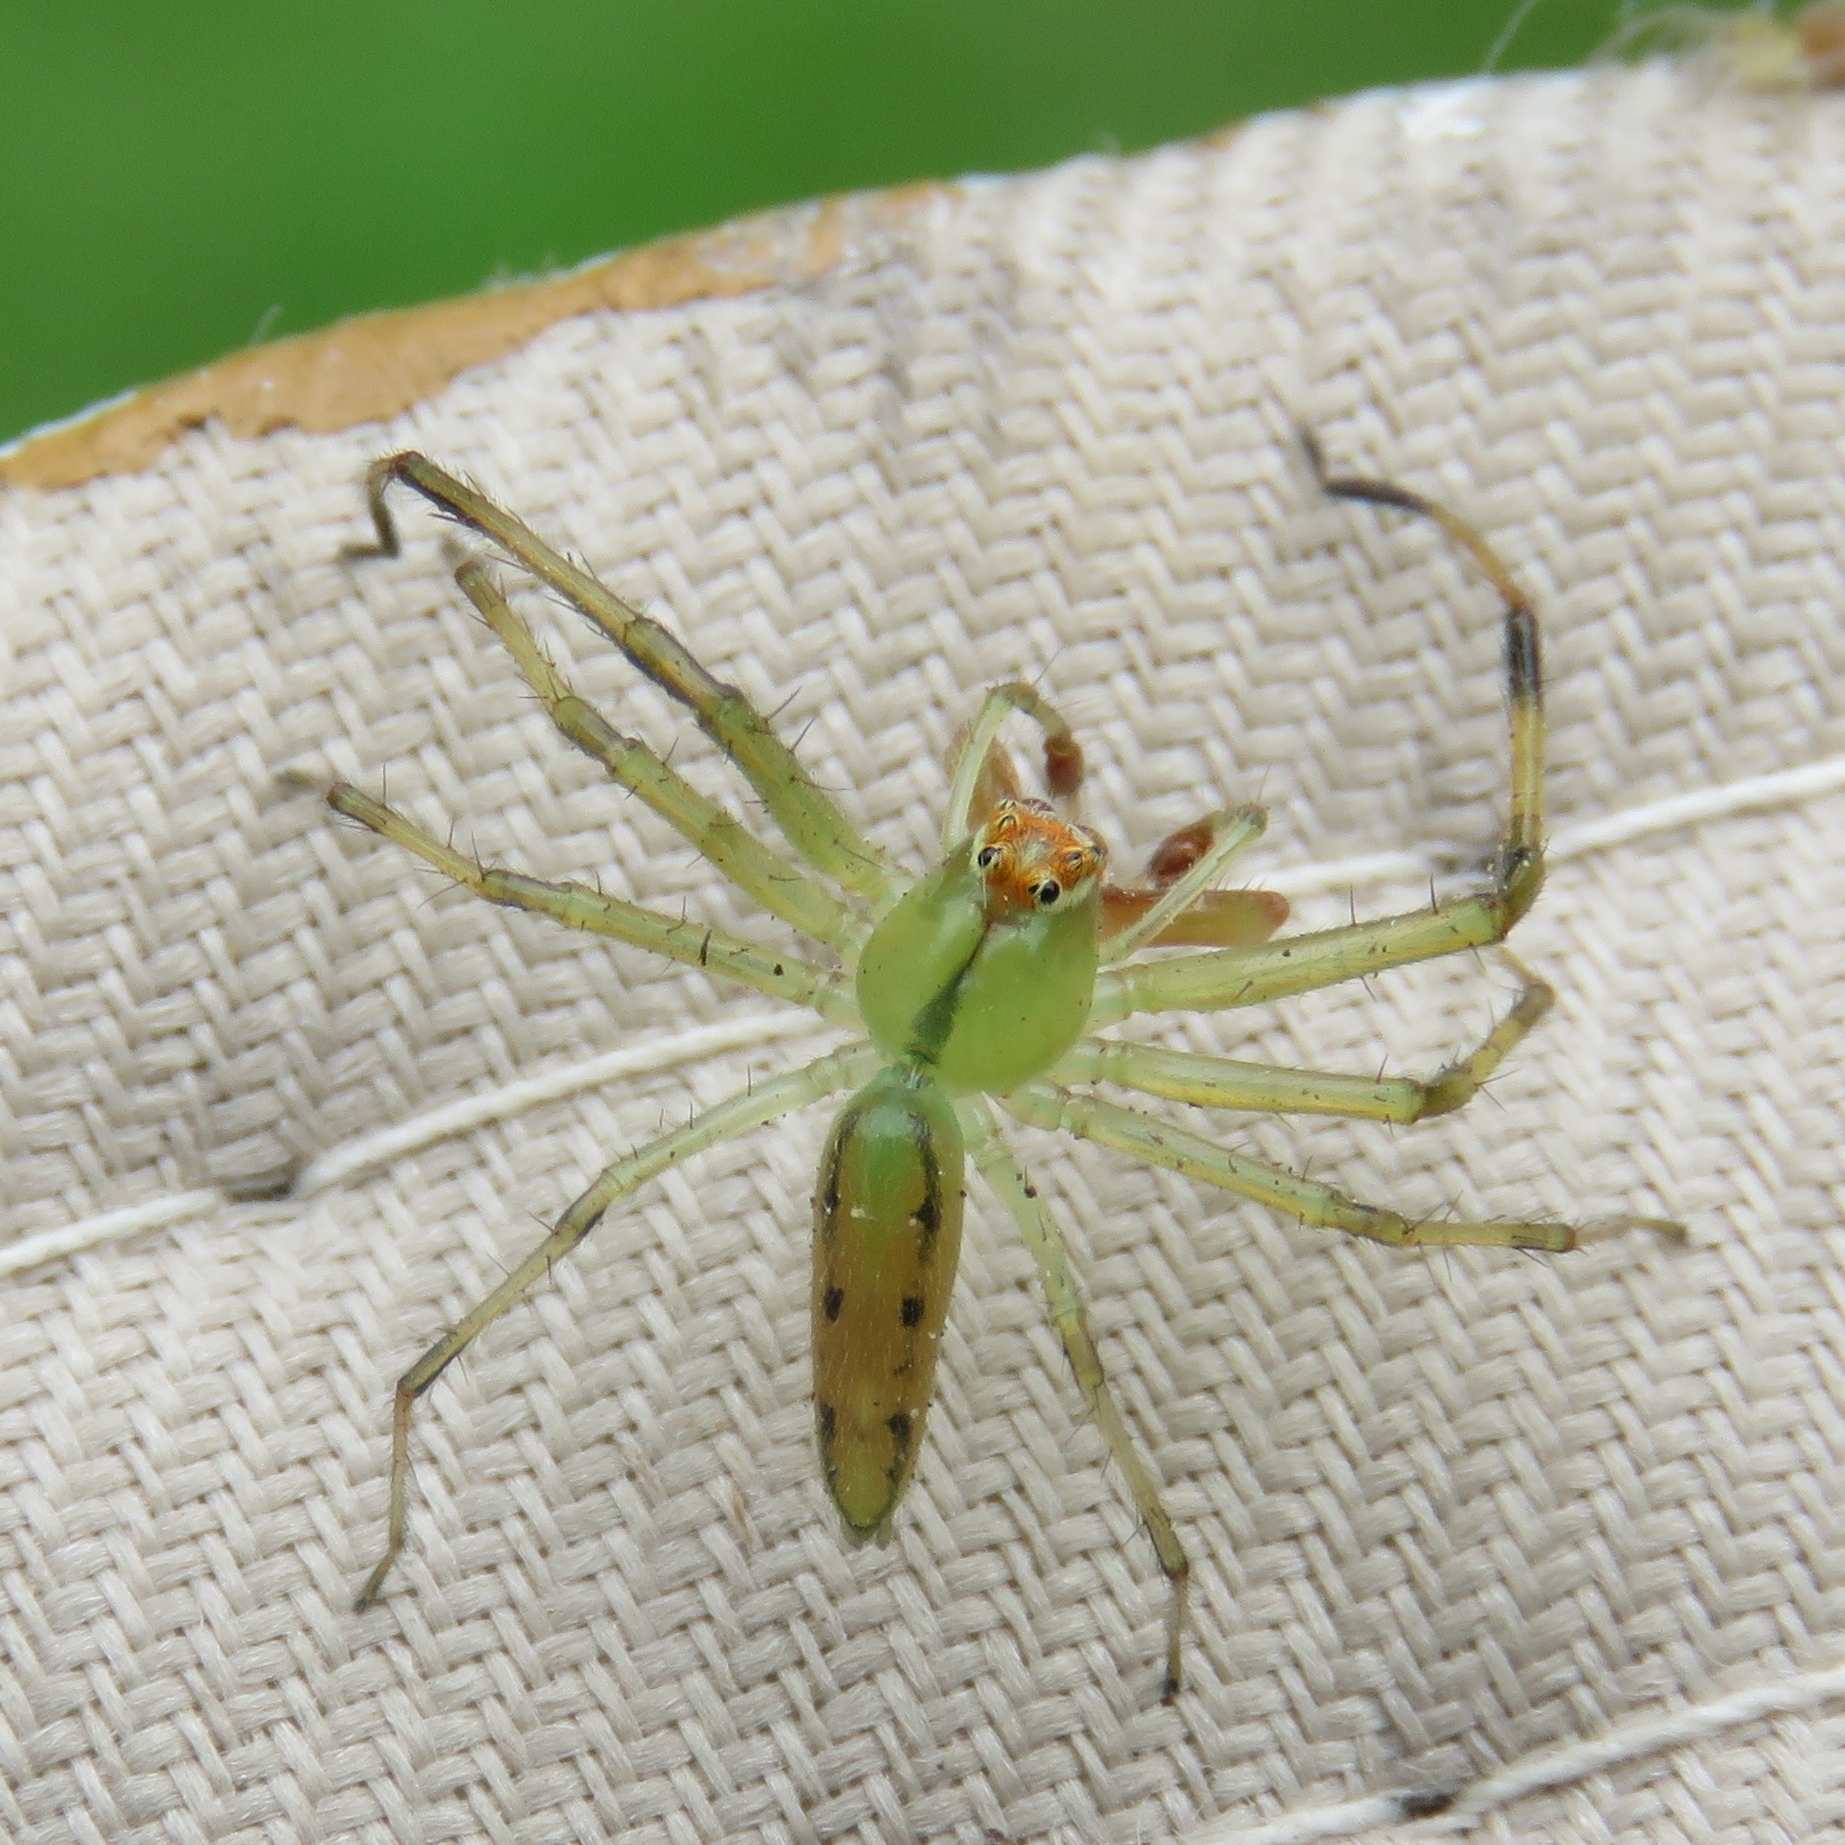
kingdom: Animalia
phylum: Arthropoda
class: Arachnida
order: Araneae
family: Salticidae
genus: Lyssomanes
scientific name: Lyssomanes viridis
